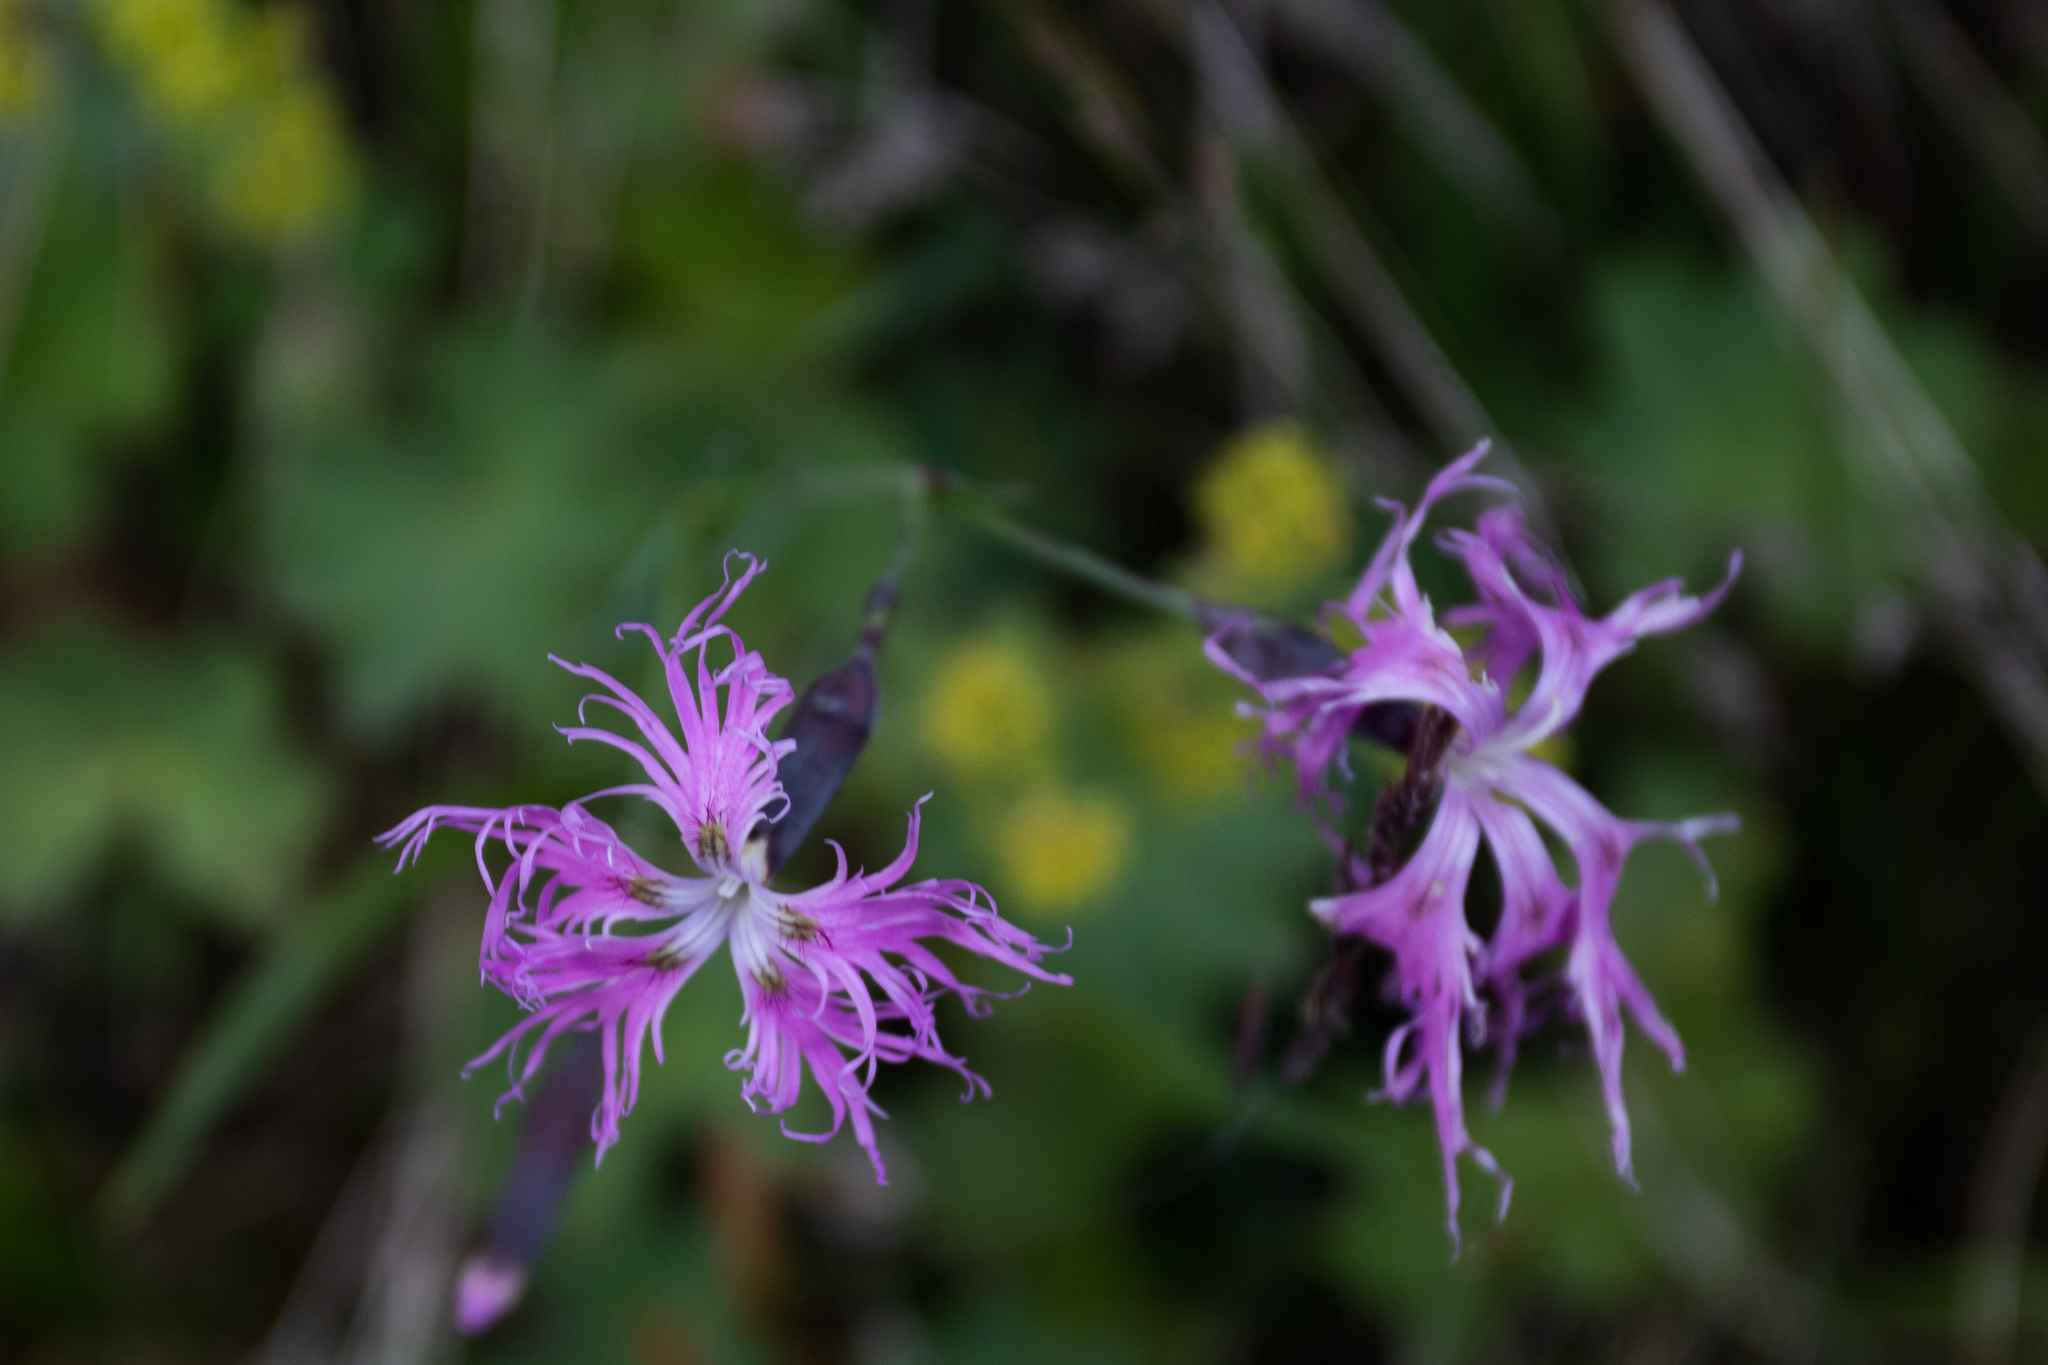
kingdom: Plantae
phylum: Tracheophyta
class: Magnoliopsida
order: Caryophyllales
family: Caryophyllaceae
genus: Dianthus
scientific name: Dianthus superbus
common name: Fringed pink
